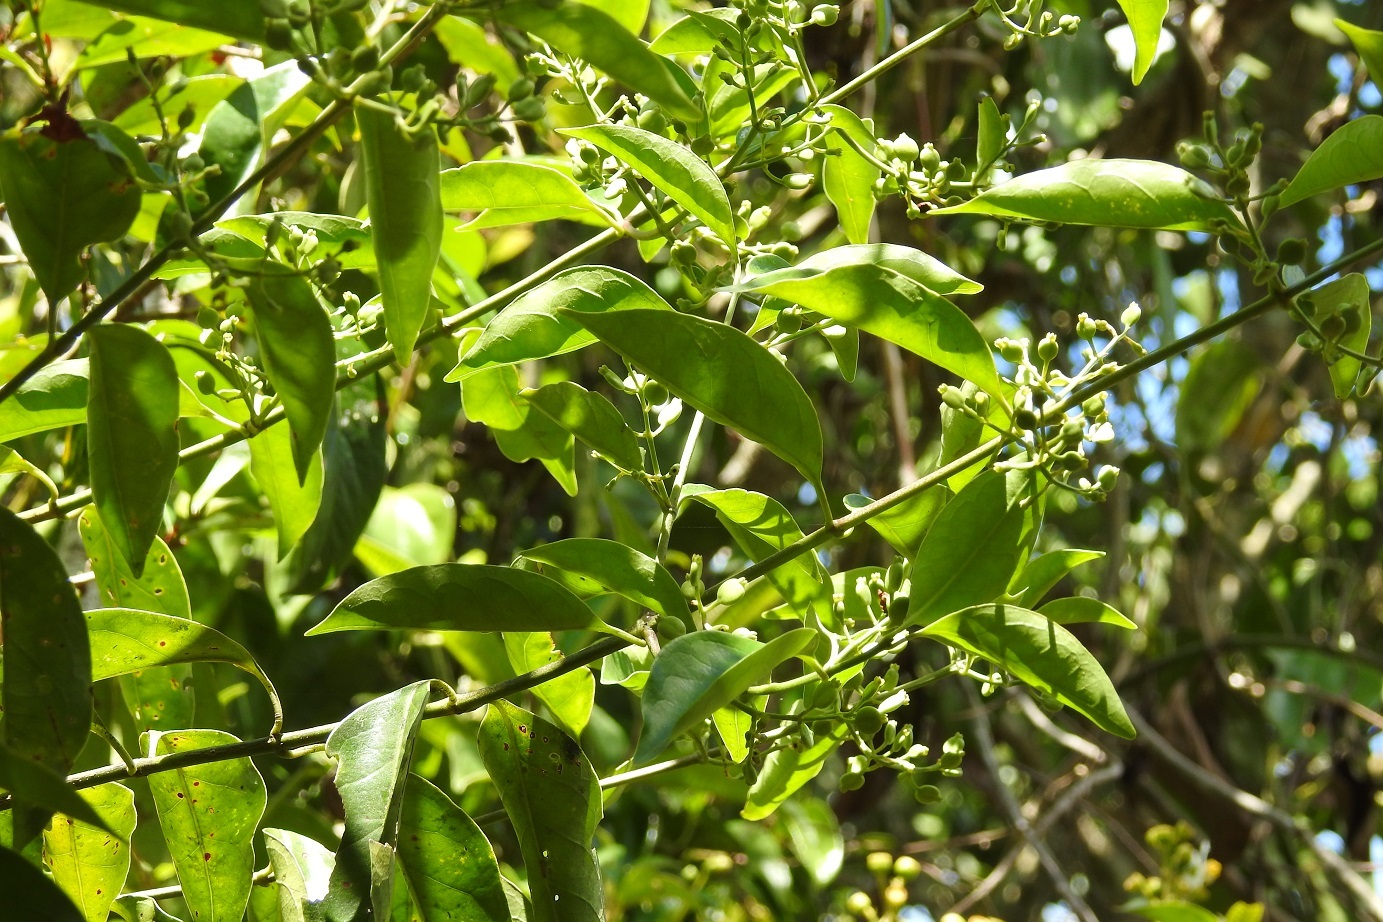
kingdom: Plantae
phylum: Tracheophyta
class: Magnoliopsida
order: Gentianales
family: Rubiaceae
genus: Chiococca
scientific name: Chiococca phaenostemon
